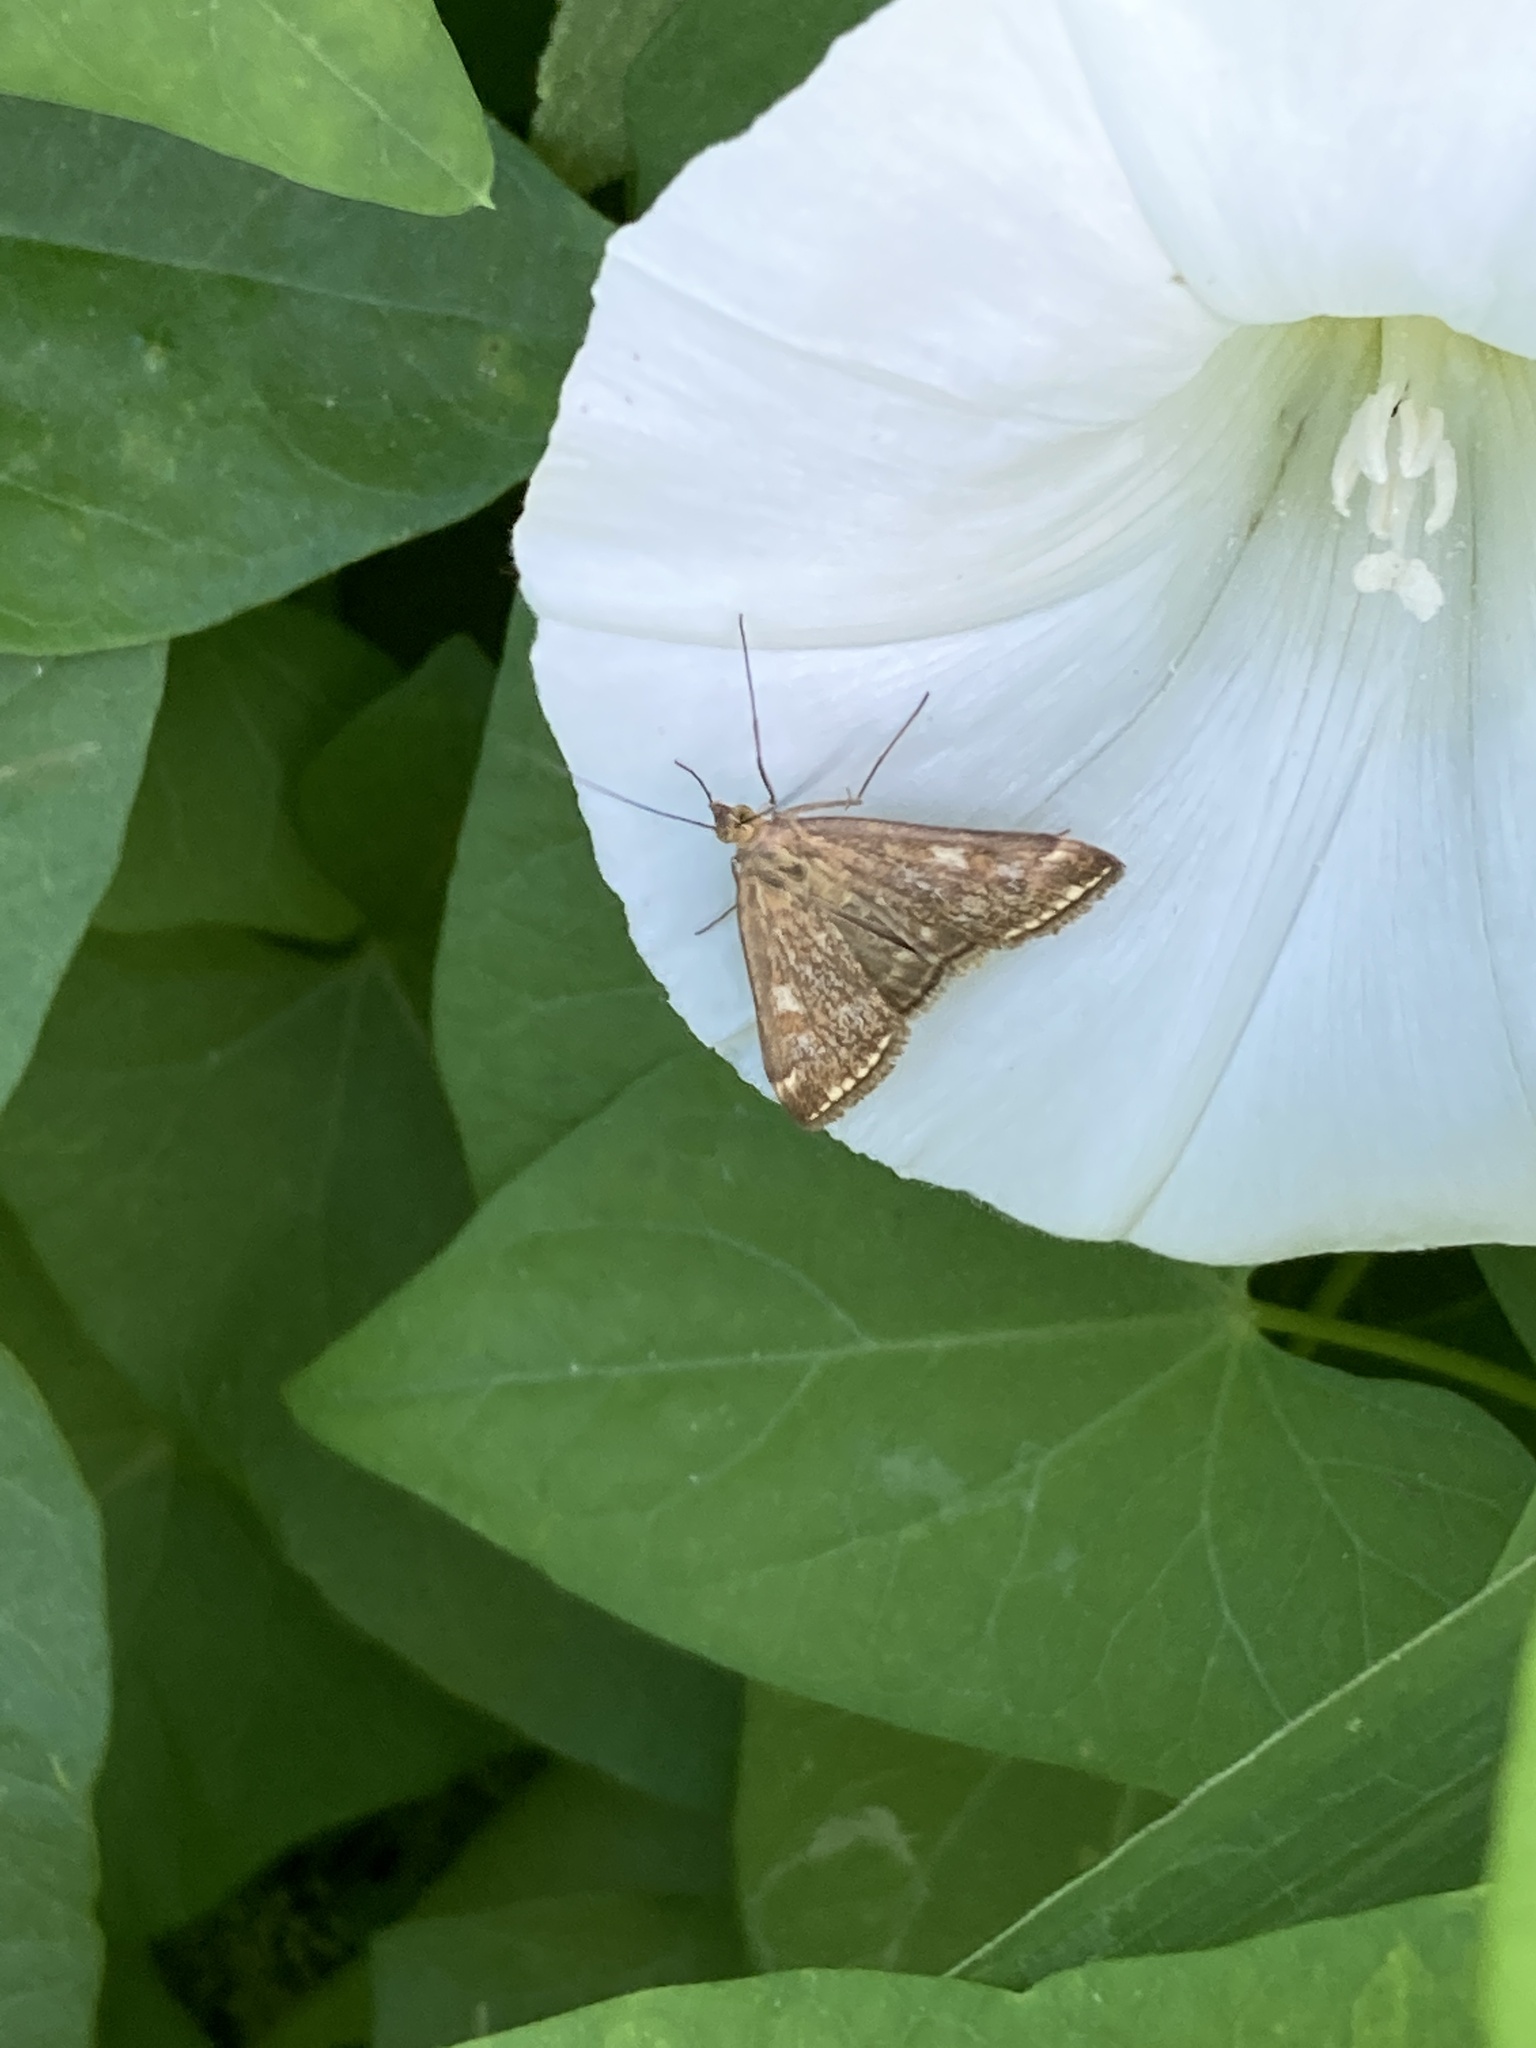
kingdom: Animalia
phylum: Arthropoda
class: Insecta
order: Lepidoptera
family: Crambidae
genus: Loxostege
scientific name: Loxostege sticticalis
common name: Crambid moth
